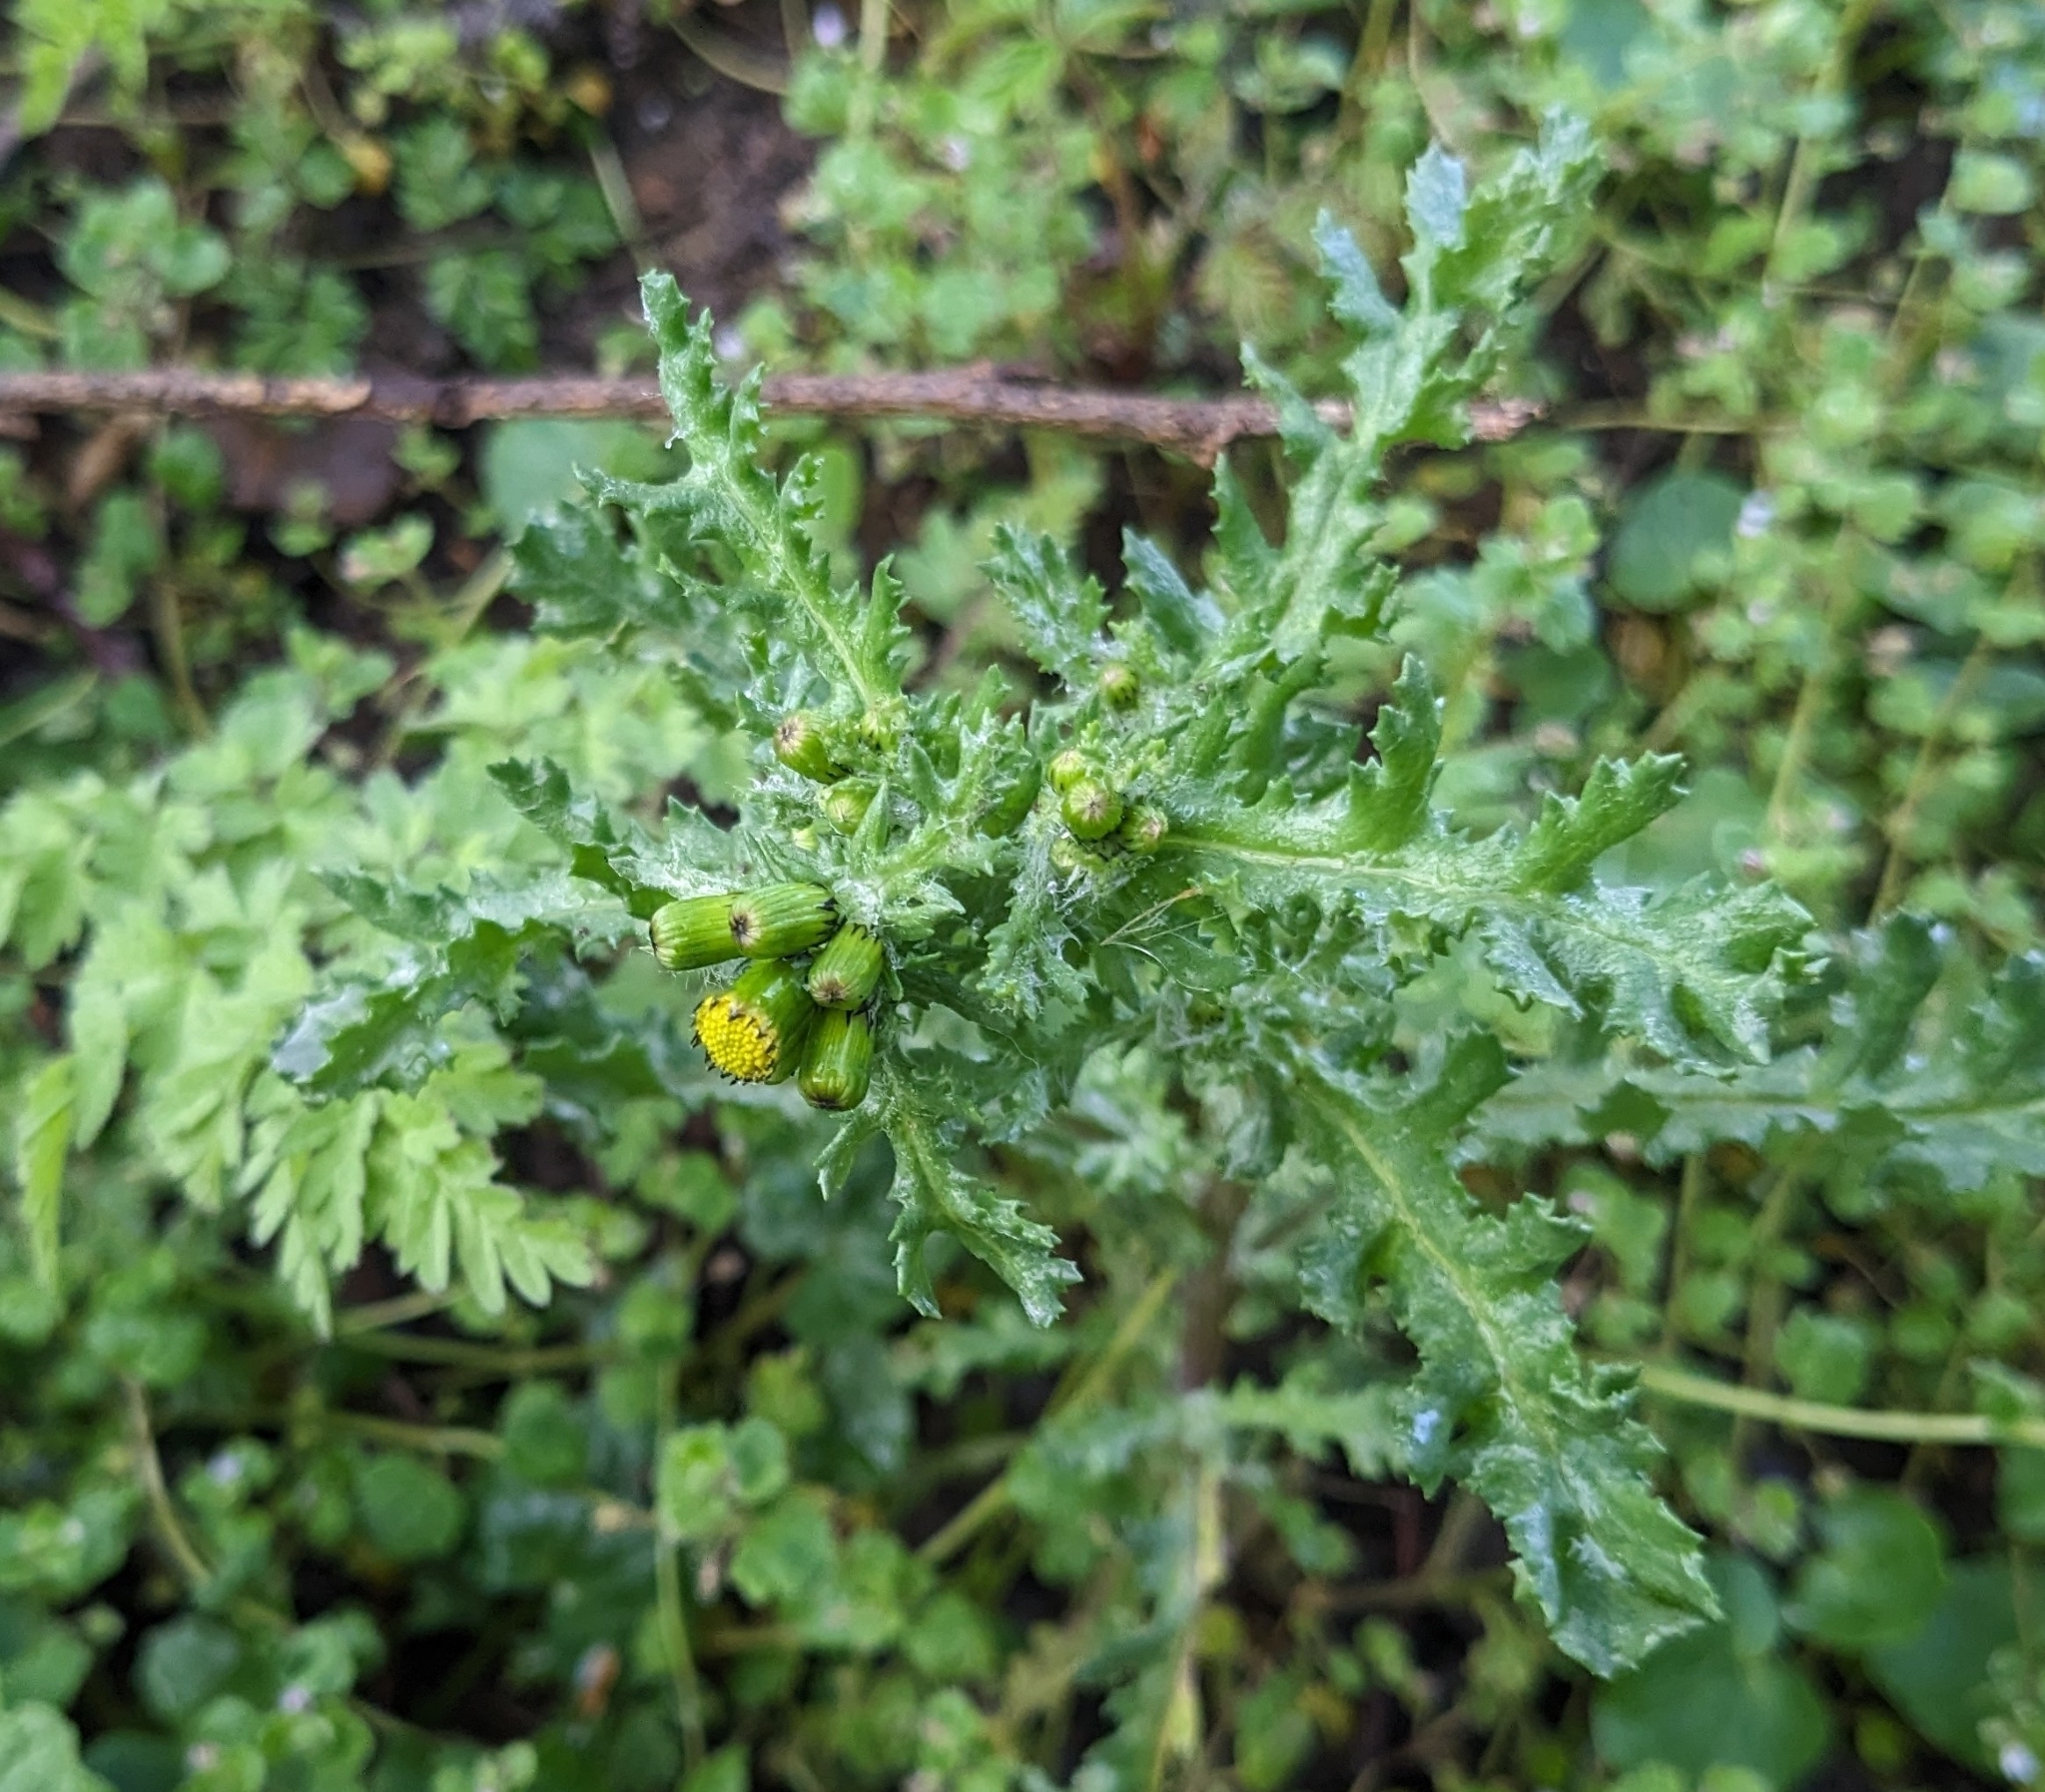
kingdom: Plantae
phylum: Tracheophyta
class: Magnoliopsida
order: Asterales
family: Asteraceae
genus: Senecio
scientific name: Senecio vulgaris
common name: Old-man-in-the-spring
